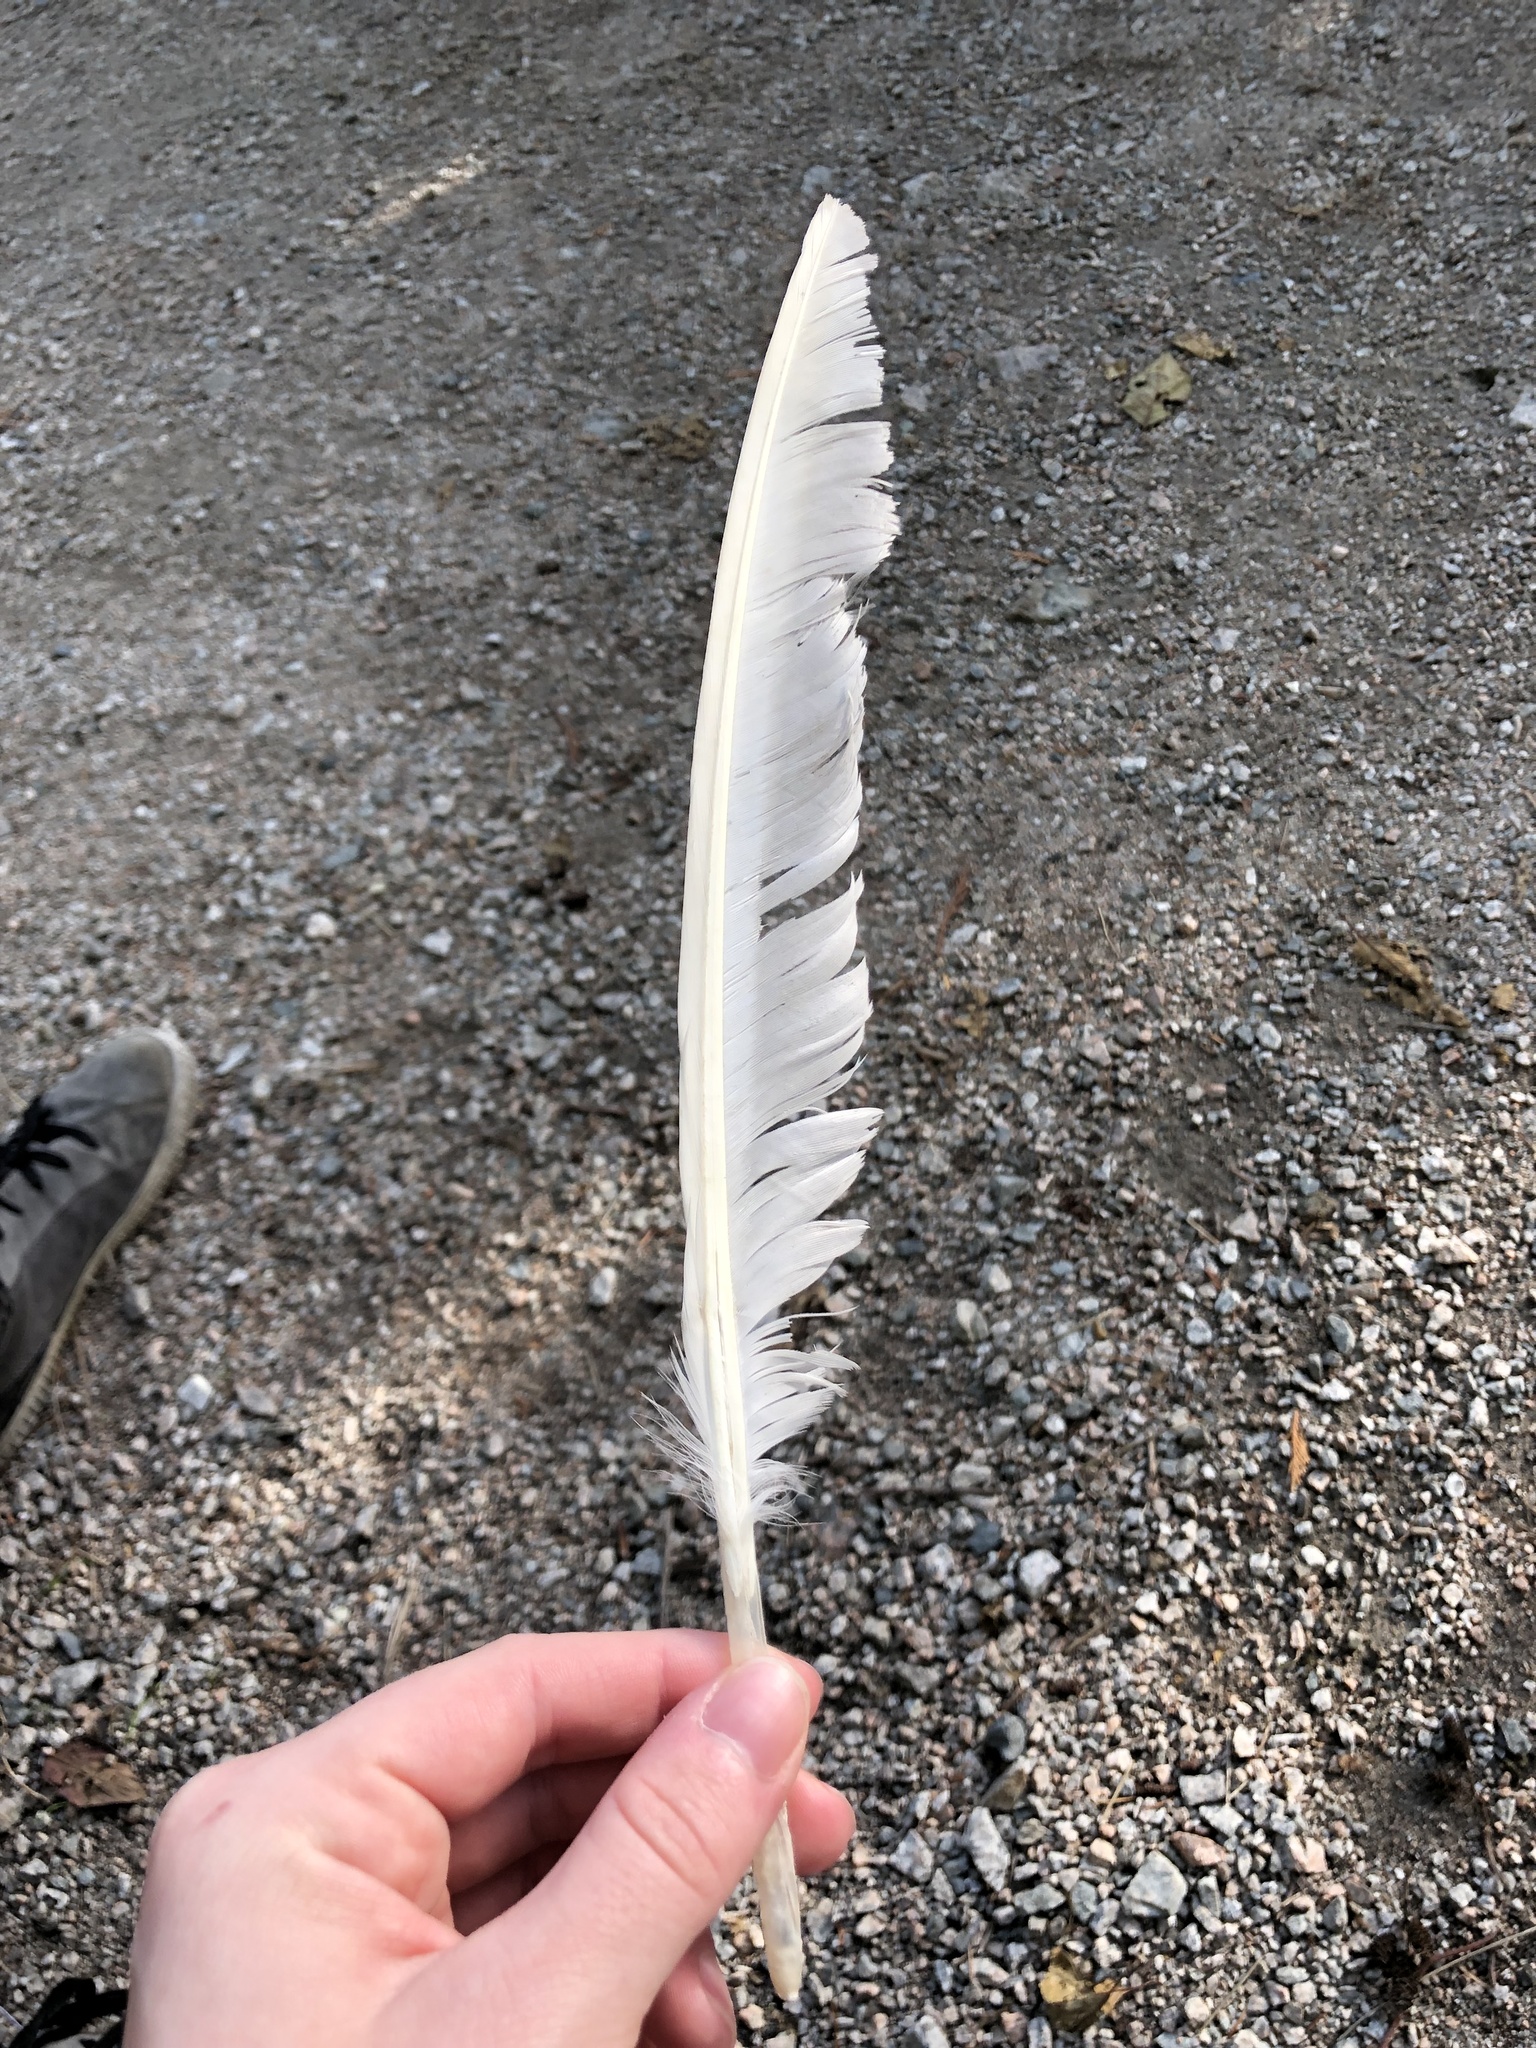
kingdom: Animalia
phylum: Chordata
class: Aves
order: Charadriiformes
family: Laridae
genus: Larus
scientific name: Larus glaucescens
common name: Glaucous-winged gull
